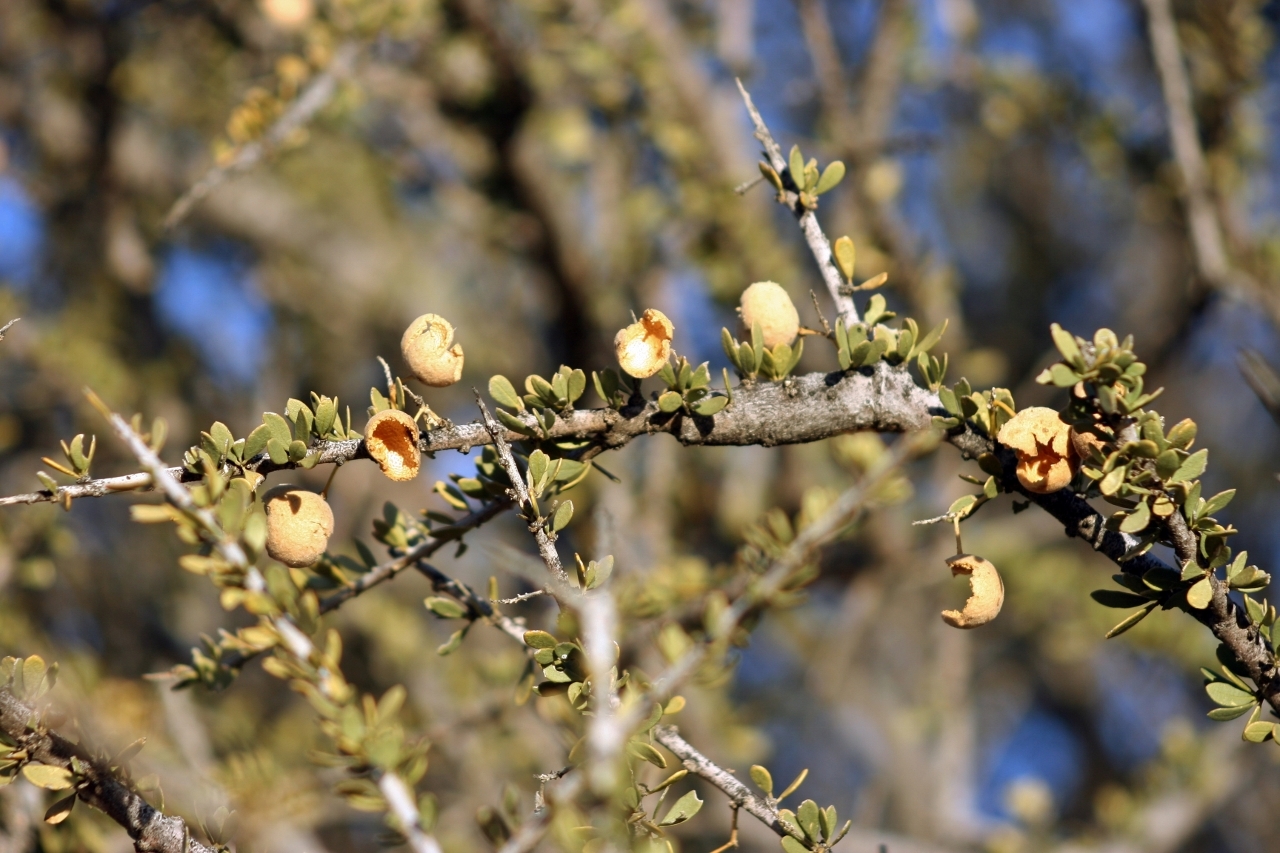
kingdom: Plantae
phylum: Tracheophyta
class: Magnoliopsida
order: Brassicales
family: Capparaceae
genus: Boscia
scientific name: Boscia foetida
